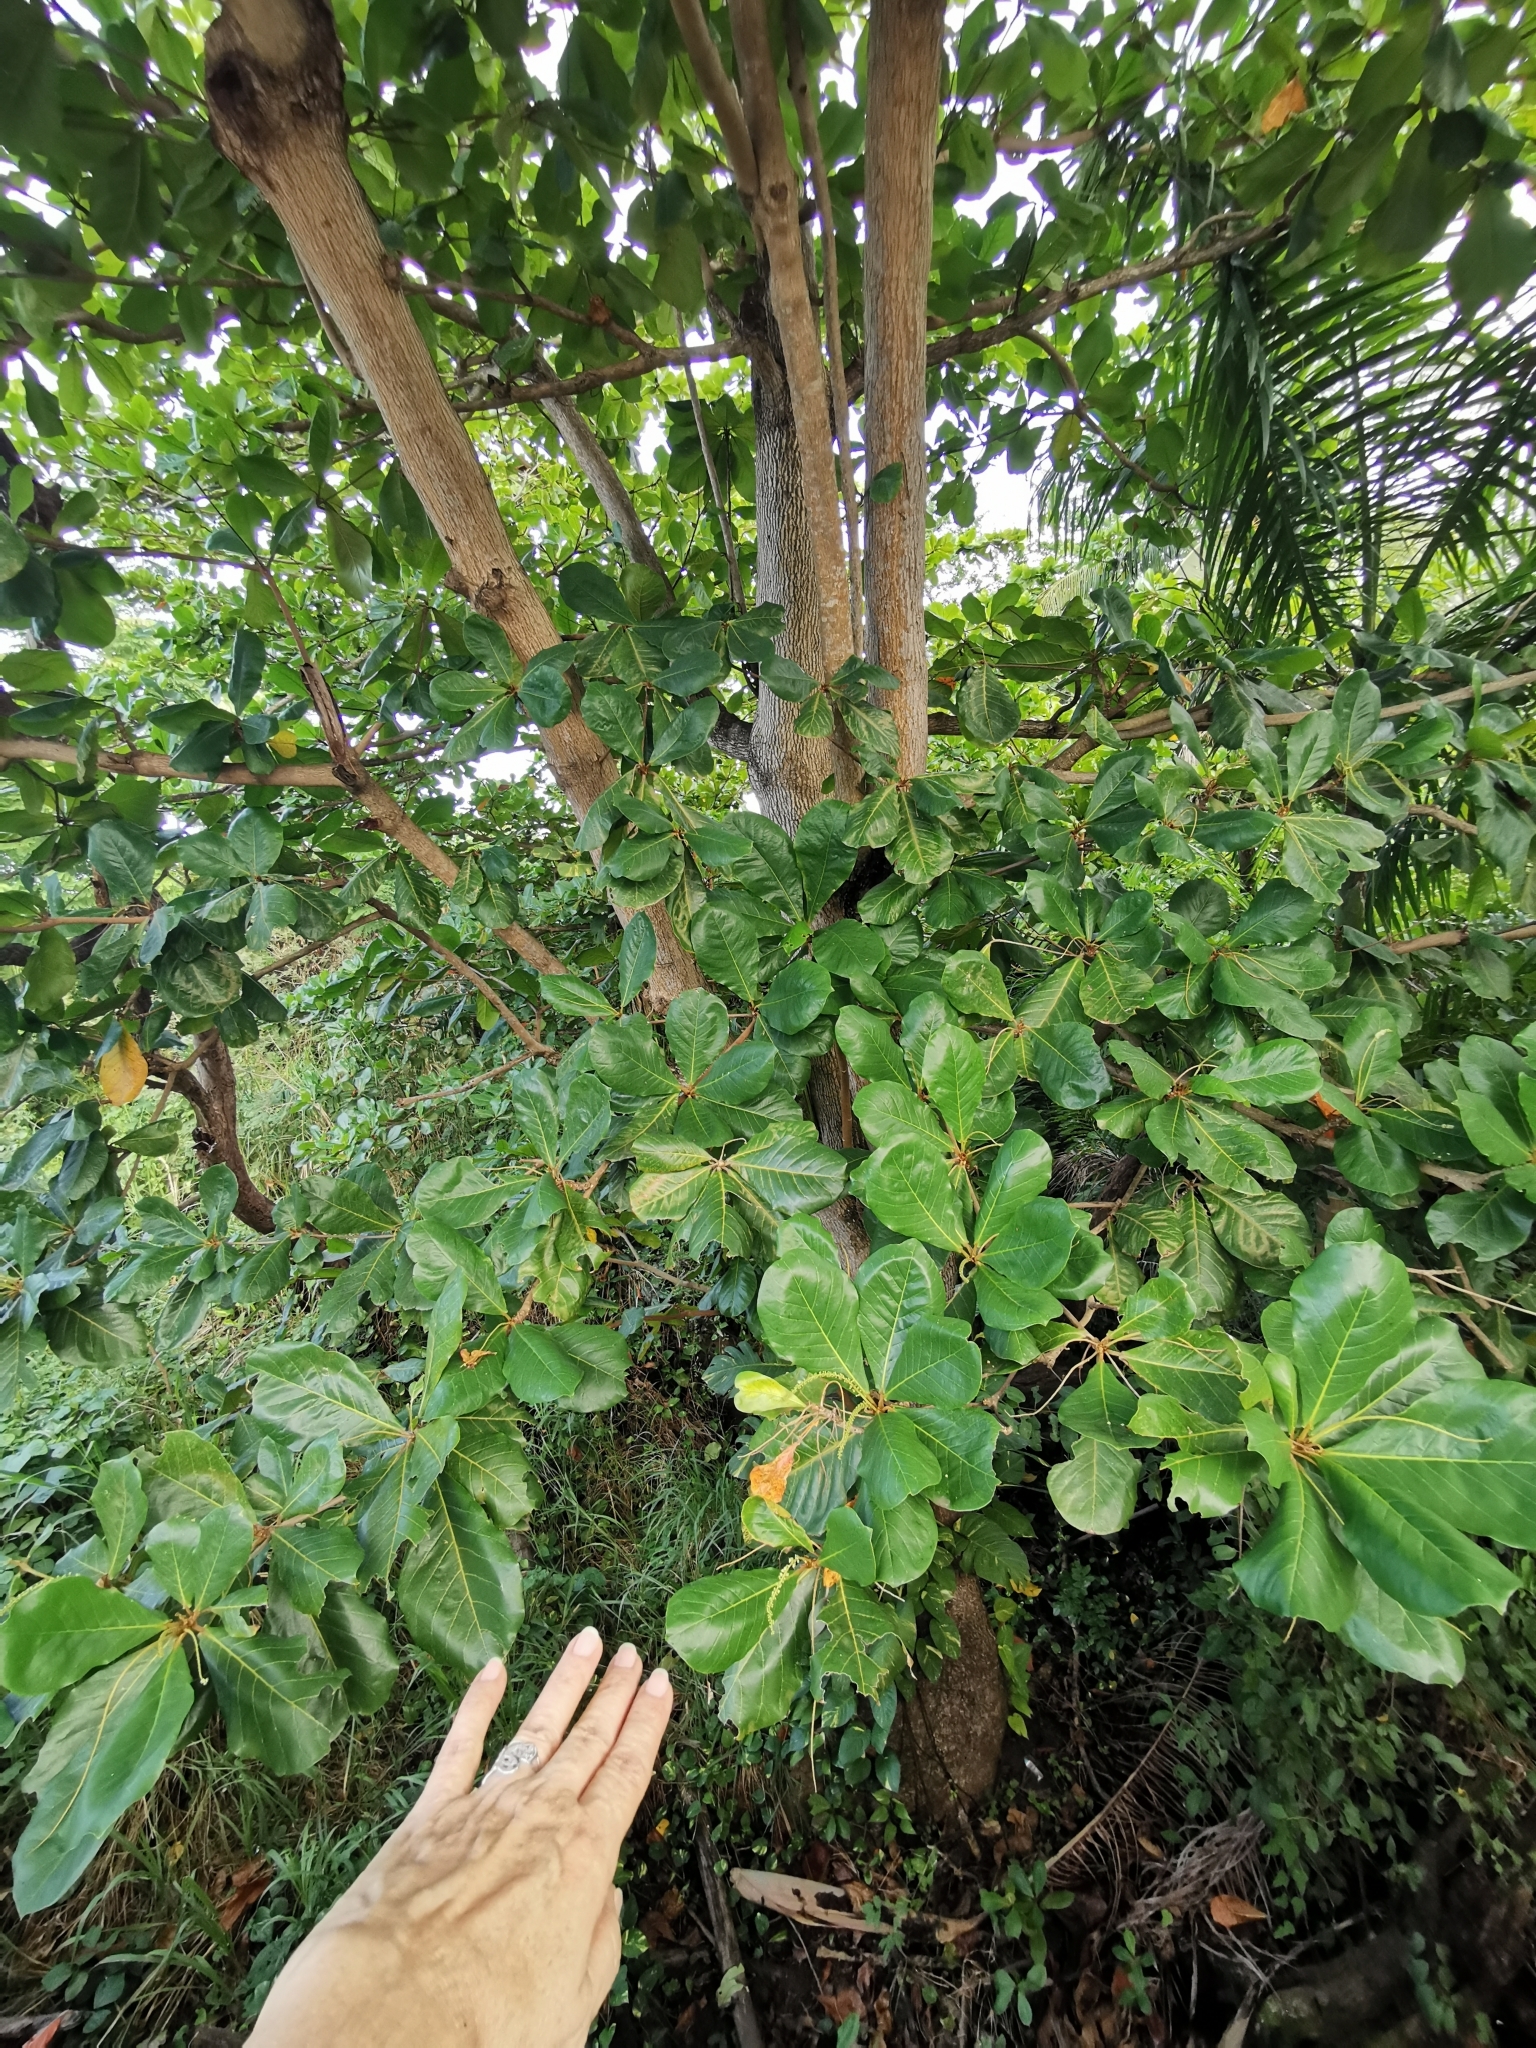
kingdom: Plantae
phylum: Tracheophyta
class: Magnoliopsida
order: Myrtales
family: Combretaceae
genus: Terminalia
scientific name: Terminalia catappa
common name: Tropical almond
